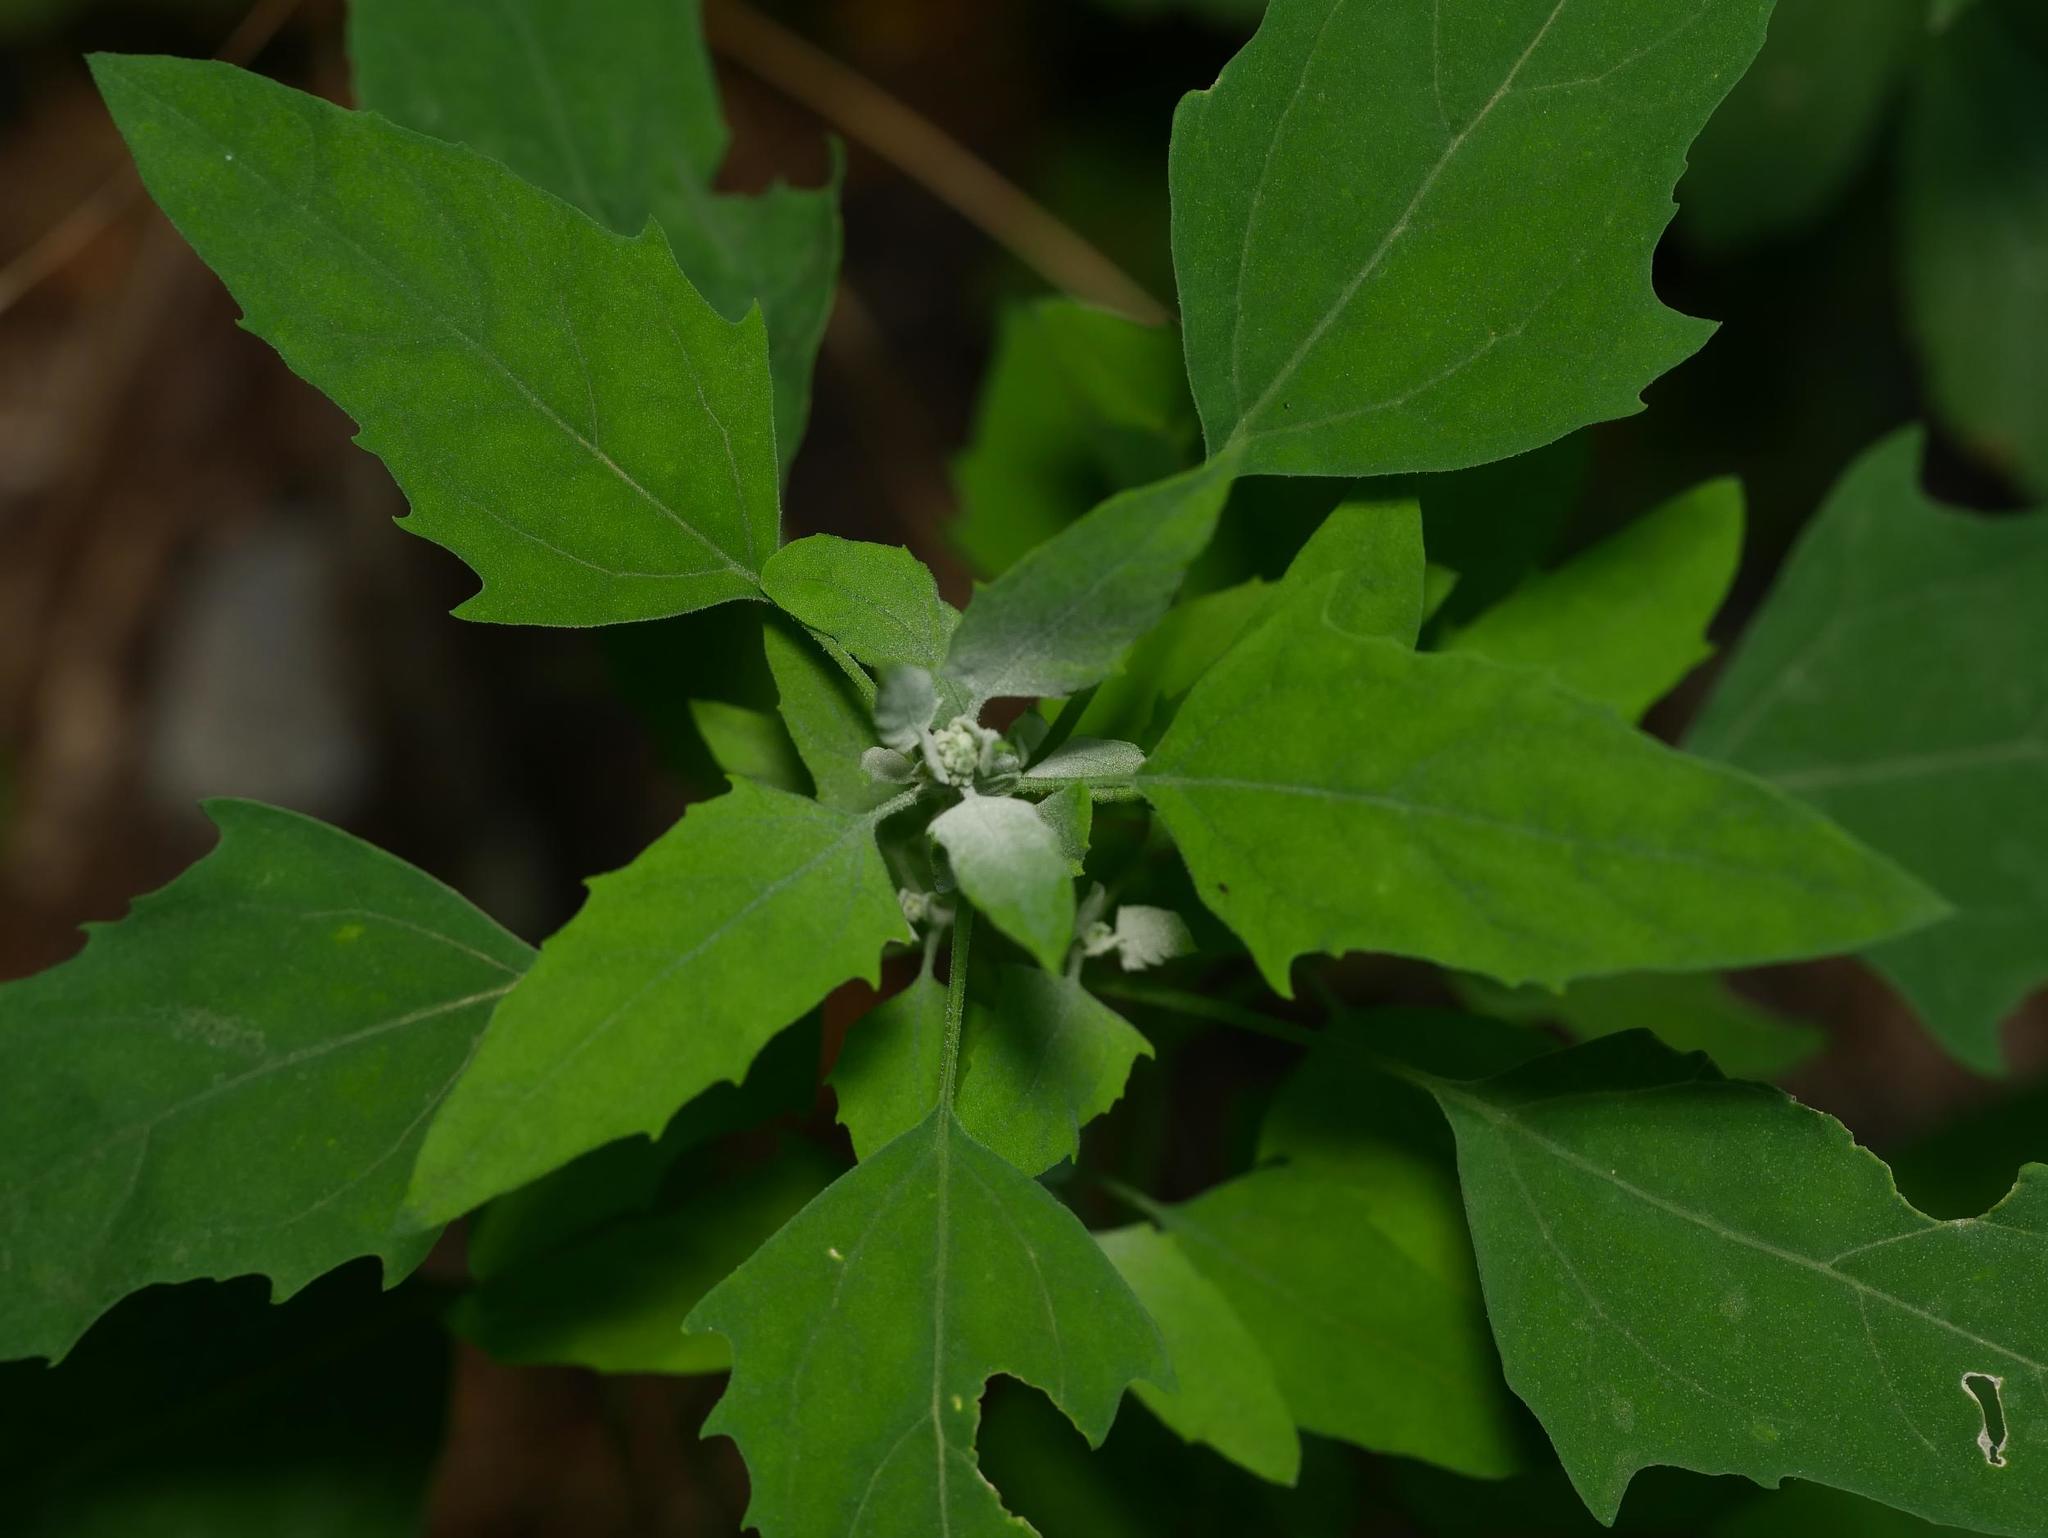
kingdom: Plantae
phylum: Tracheophyta
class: Magnoliopsida
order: Caryophyllales
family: Amaranthaceae
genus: Chenopodium
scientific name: Chenopodium album
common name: Fat-hen
